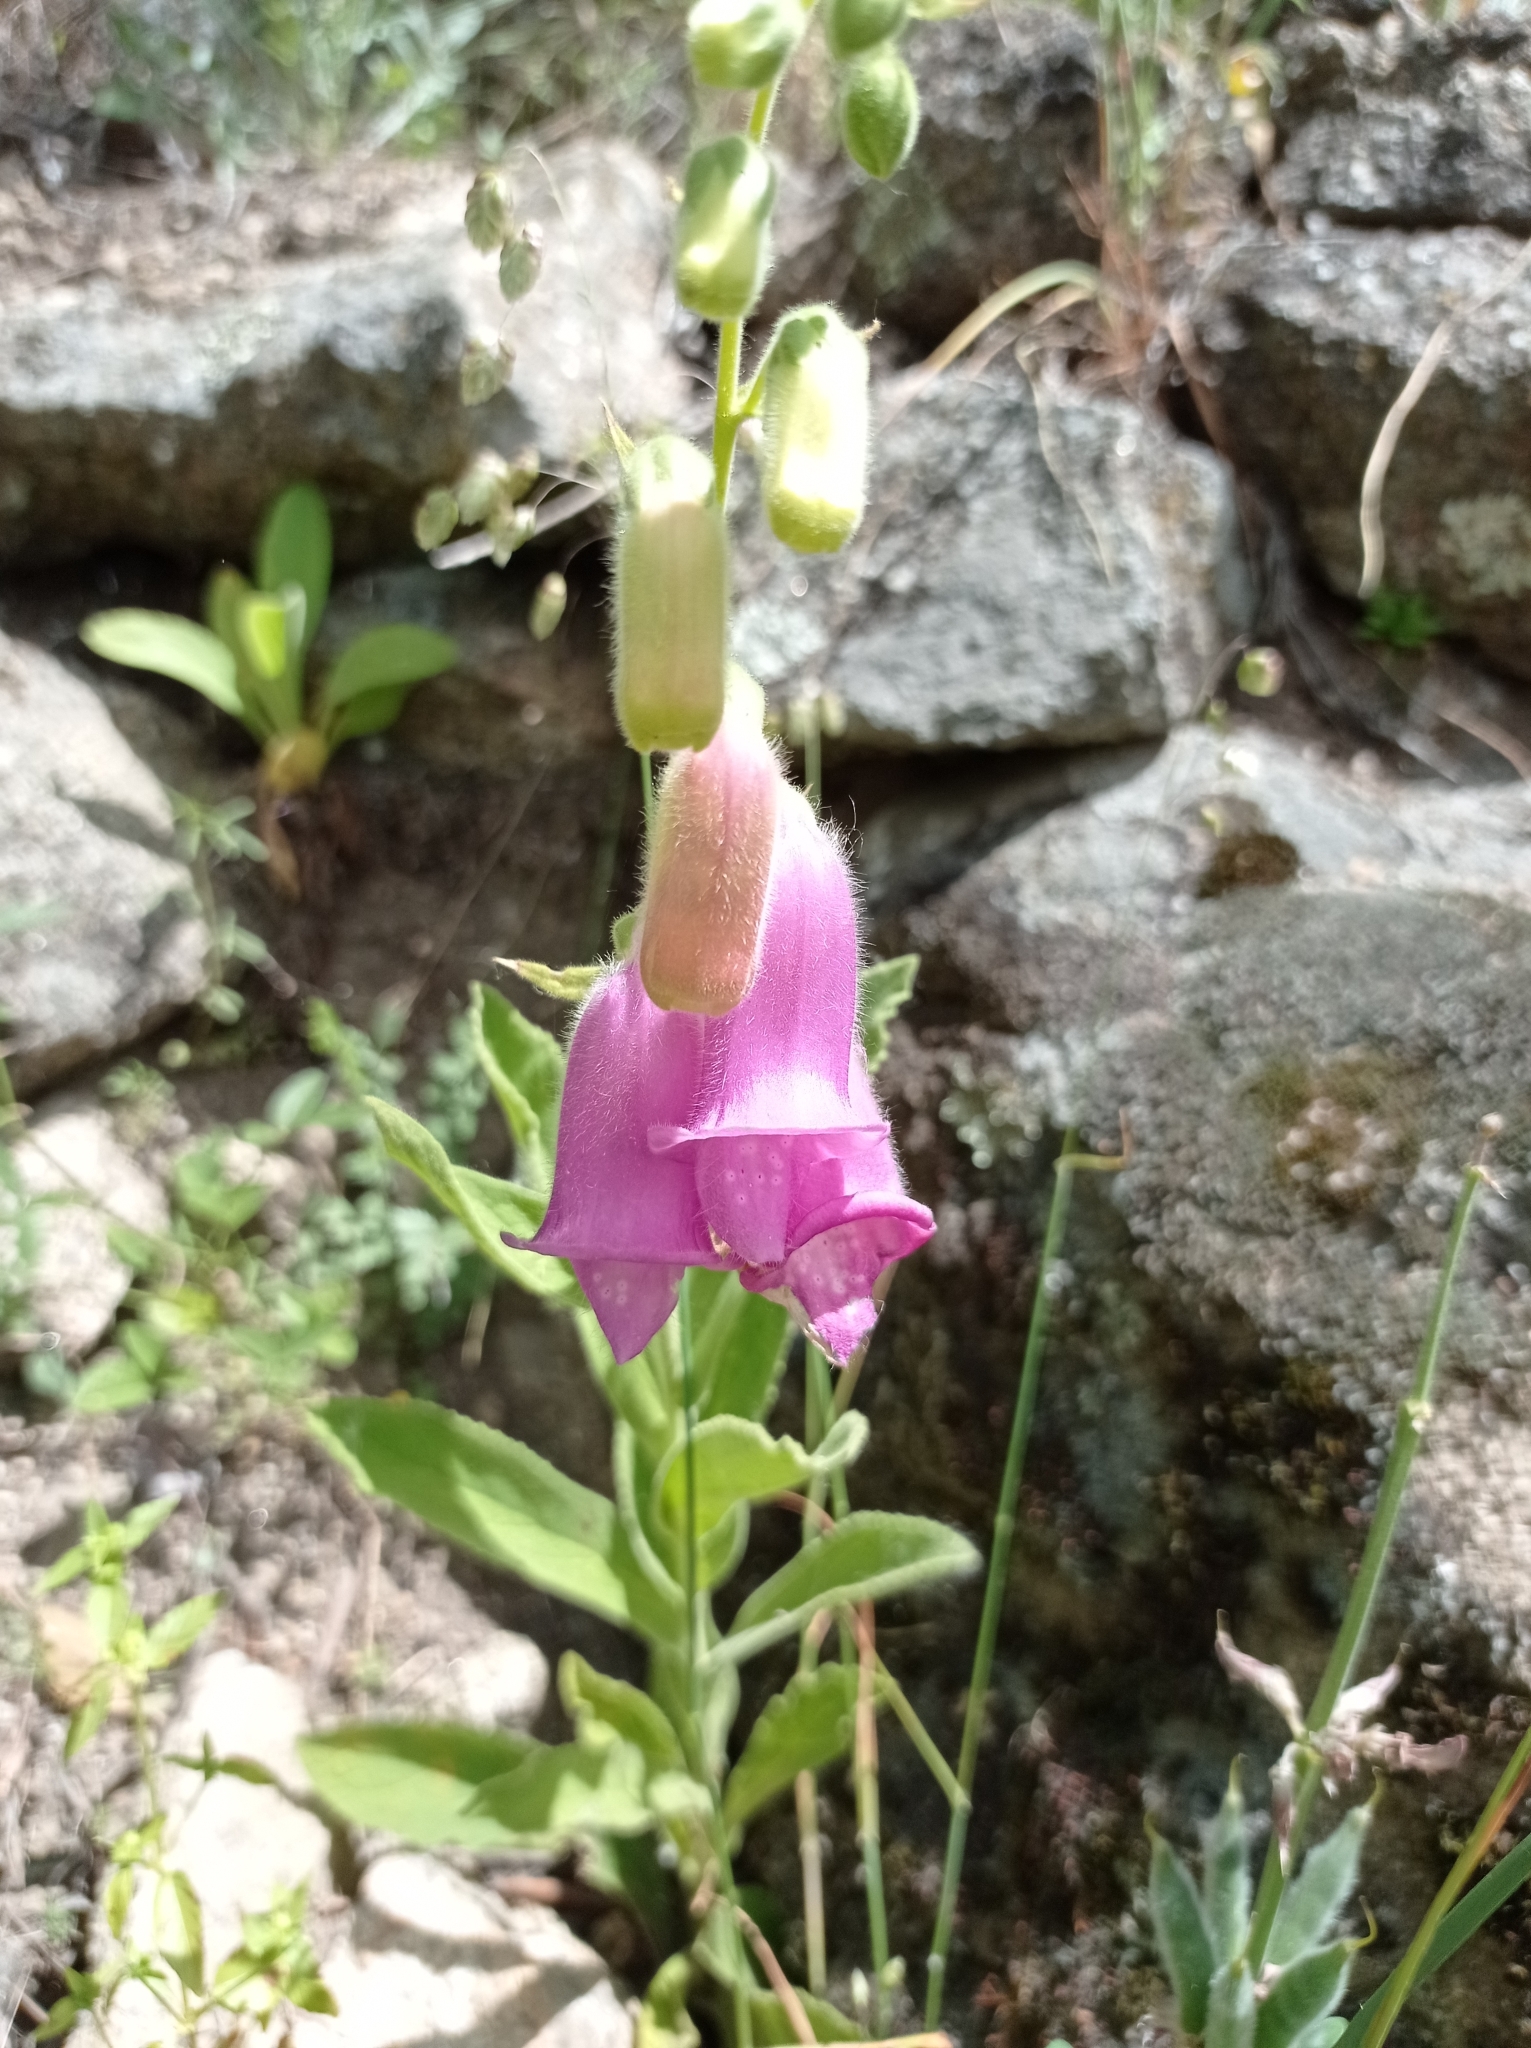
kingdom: Plantae
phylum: Tracheophyta
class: Magnoliopsida
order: Lamiales
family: Plantaginaceae
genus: Digitalis
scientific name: Digitalis thapsi
